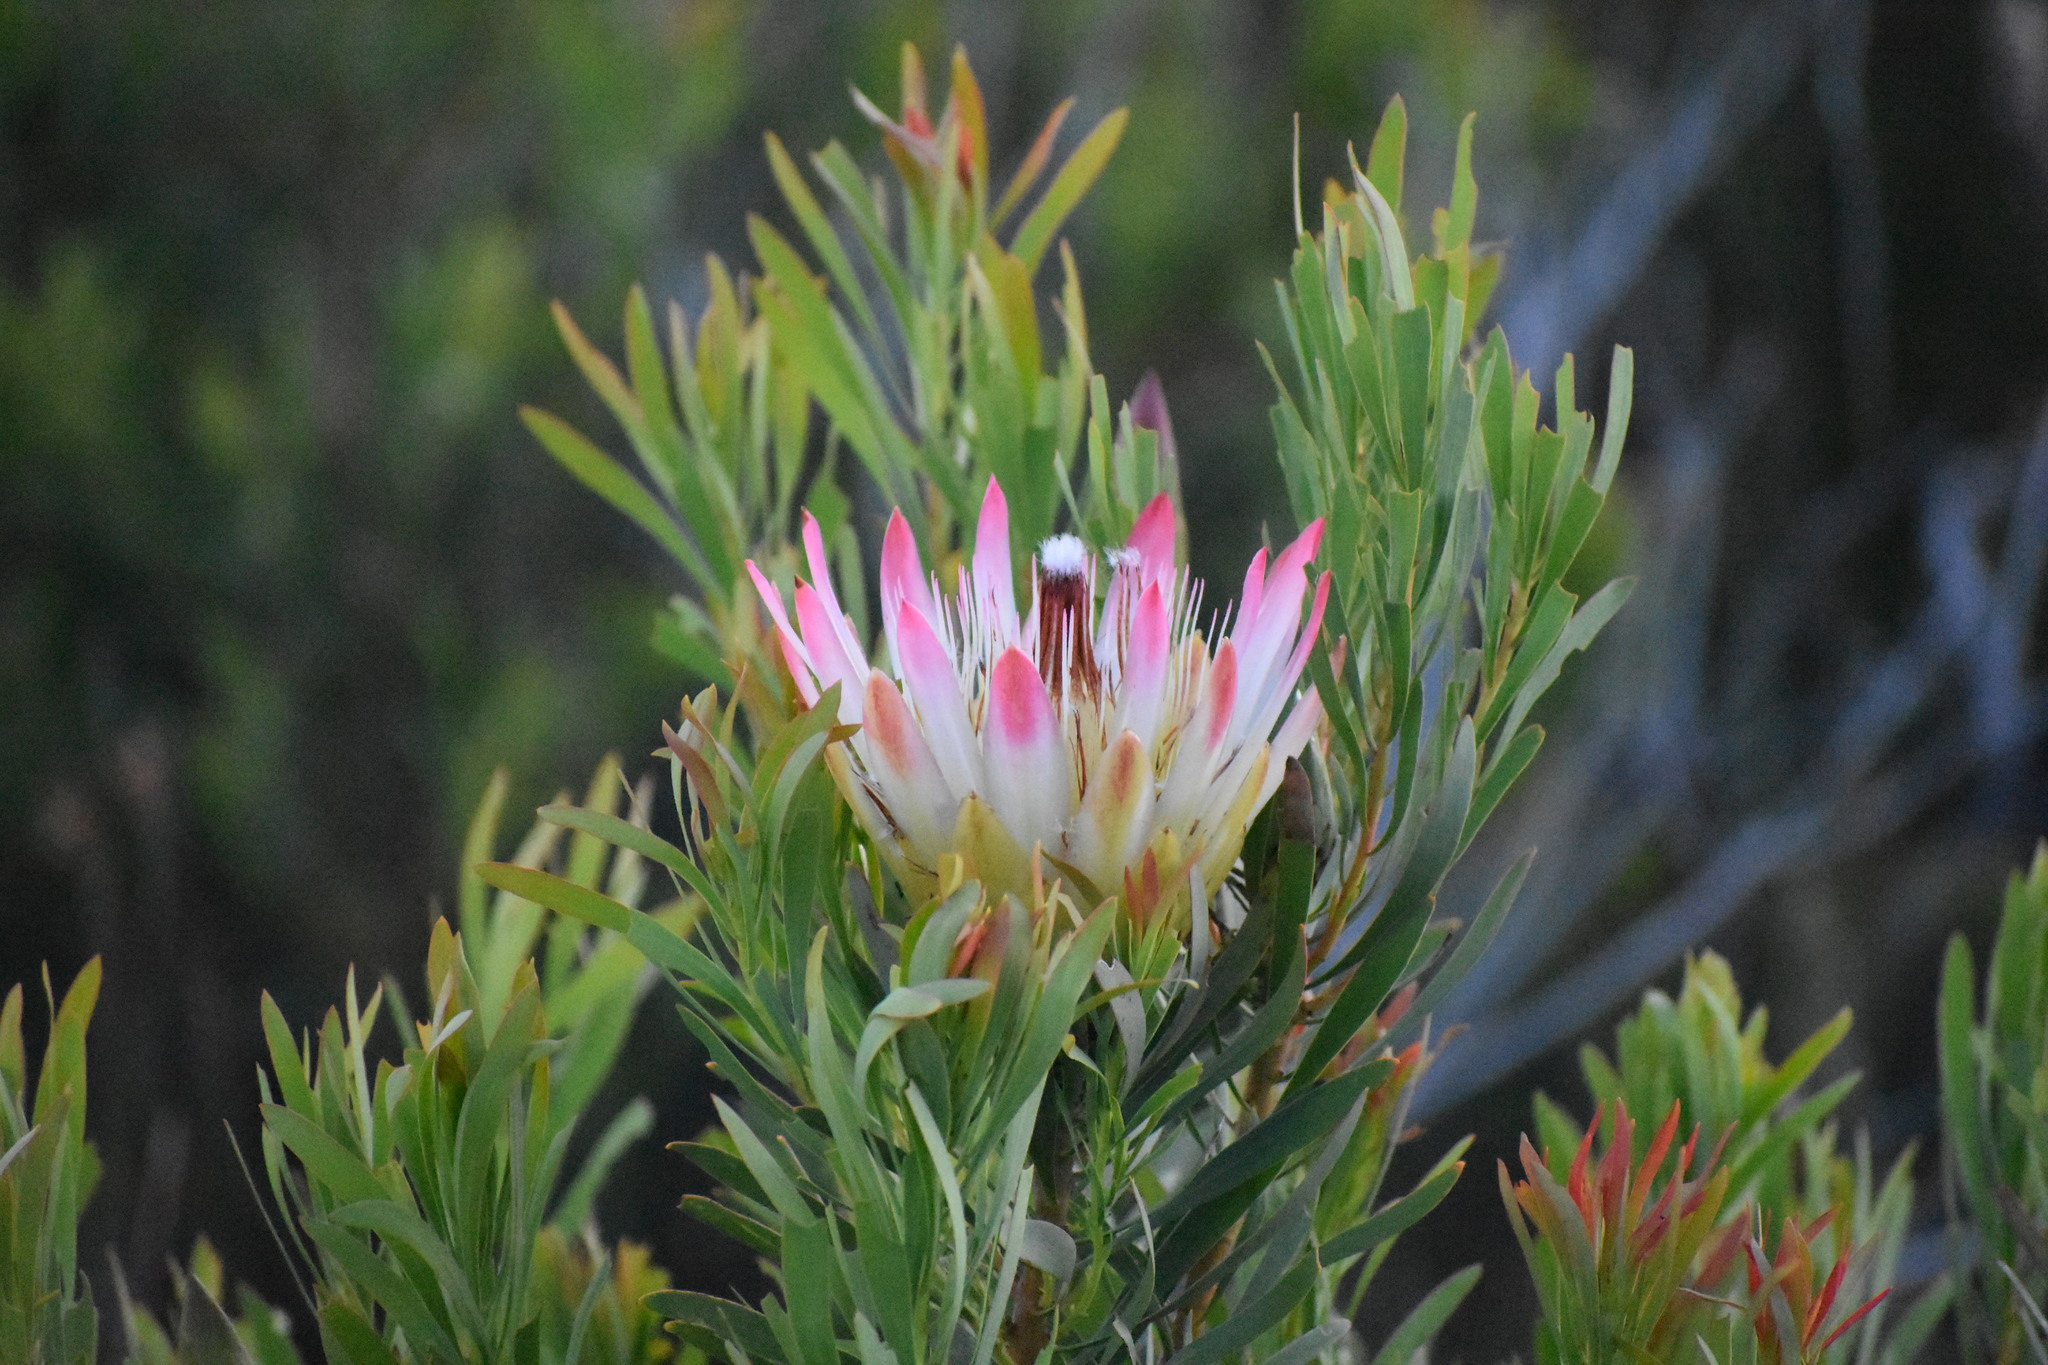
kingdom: Plantae
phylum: Tracheophyta
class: Magnoliopsida
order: Proteales
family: Proteaceae
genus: Protea
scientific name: Protea repens
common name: Sugarbush
